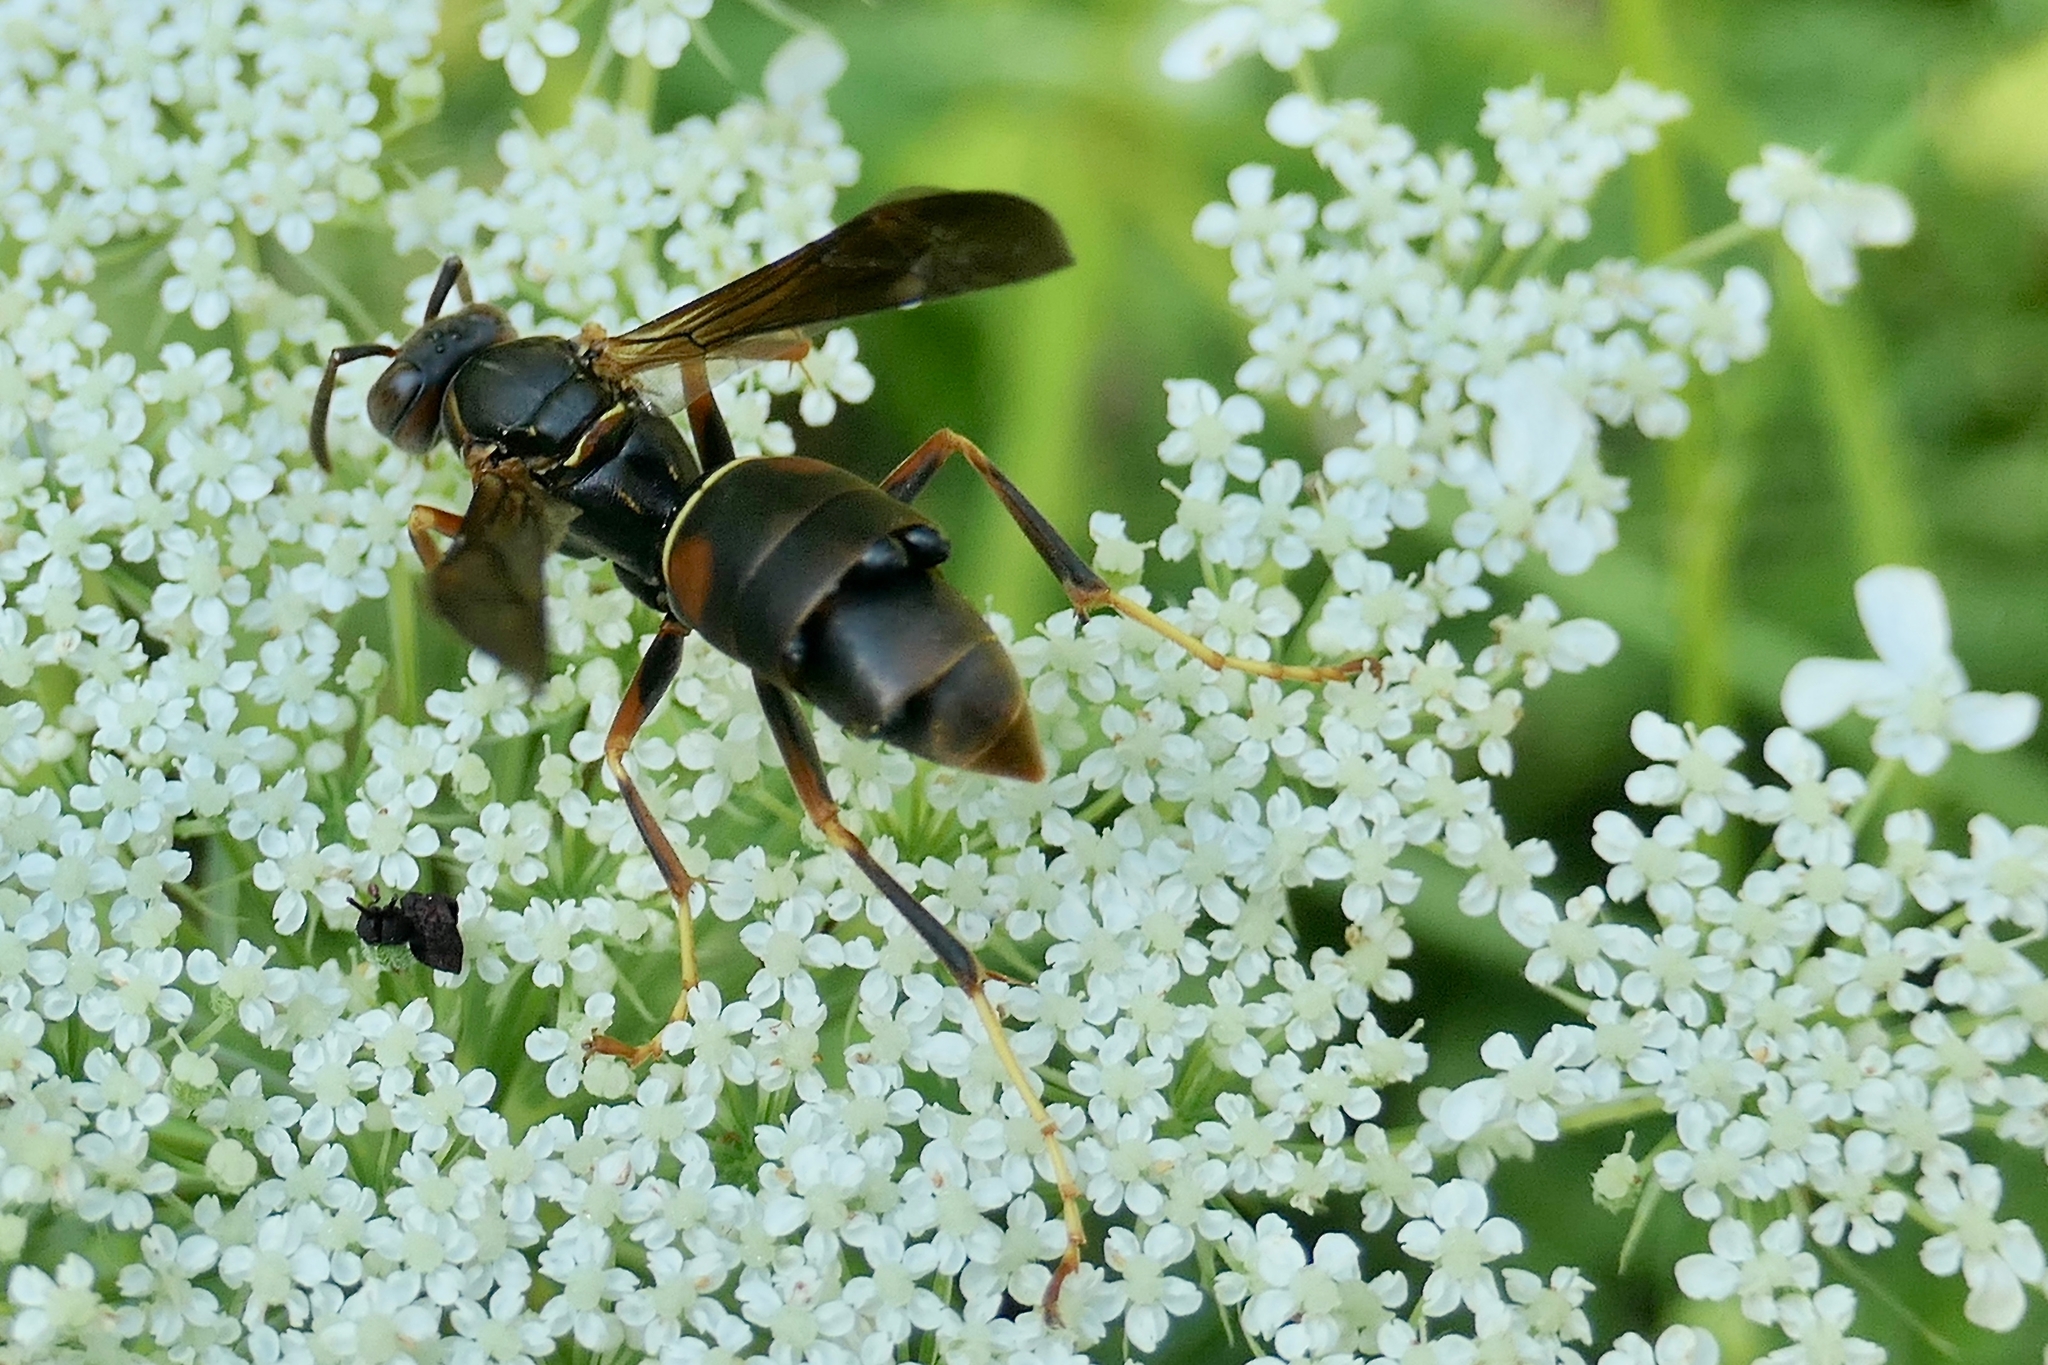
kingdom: Animalia
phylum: Arthropoda
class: Insecta
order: Strepsiptera
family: Xenidae
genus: Xenos
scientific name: Xenos pecki
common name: Twisted wing parasite
